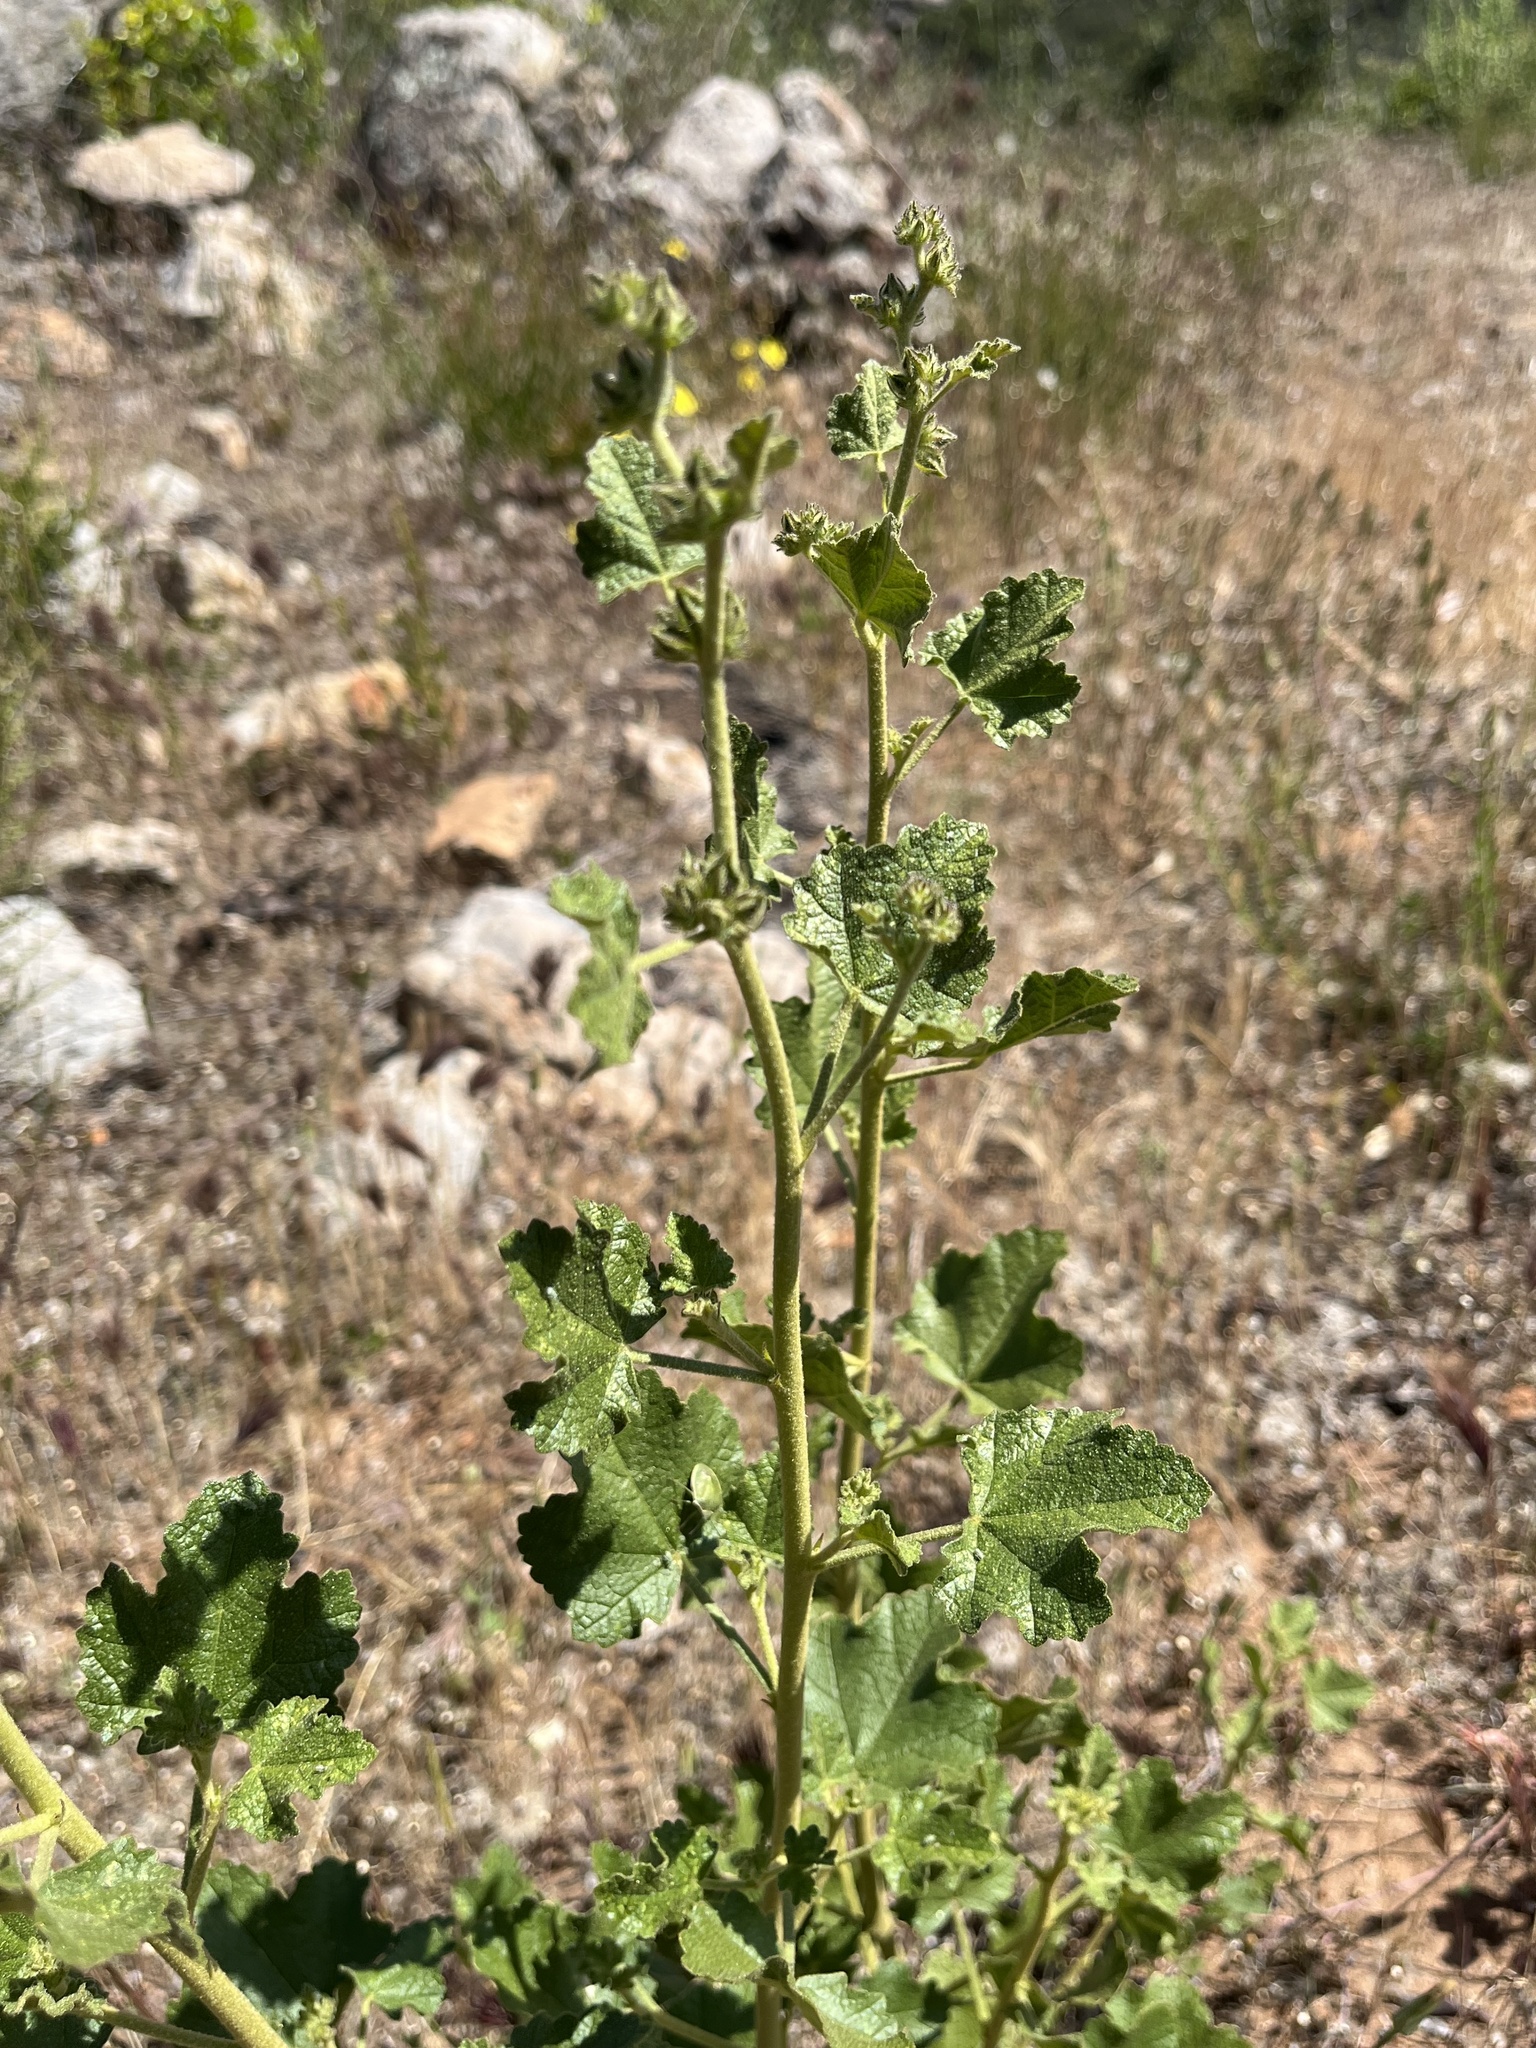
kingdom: Plantae
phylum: Tracheophyta
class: Magnoliopsida
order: Malvales
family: Malvaceae
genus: Malacothamnus
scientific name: Malacothamnus densiflorus
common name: Yellow-stem bush-mallow
